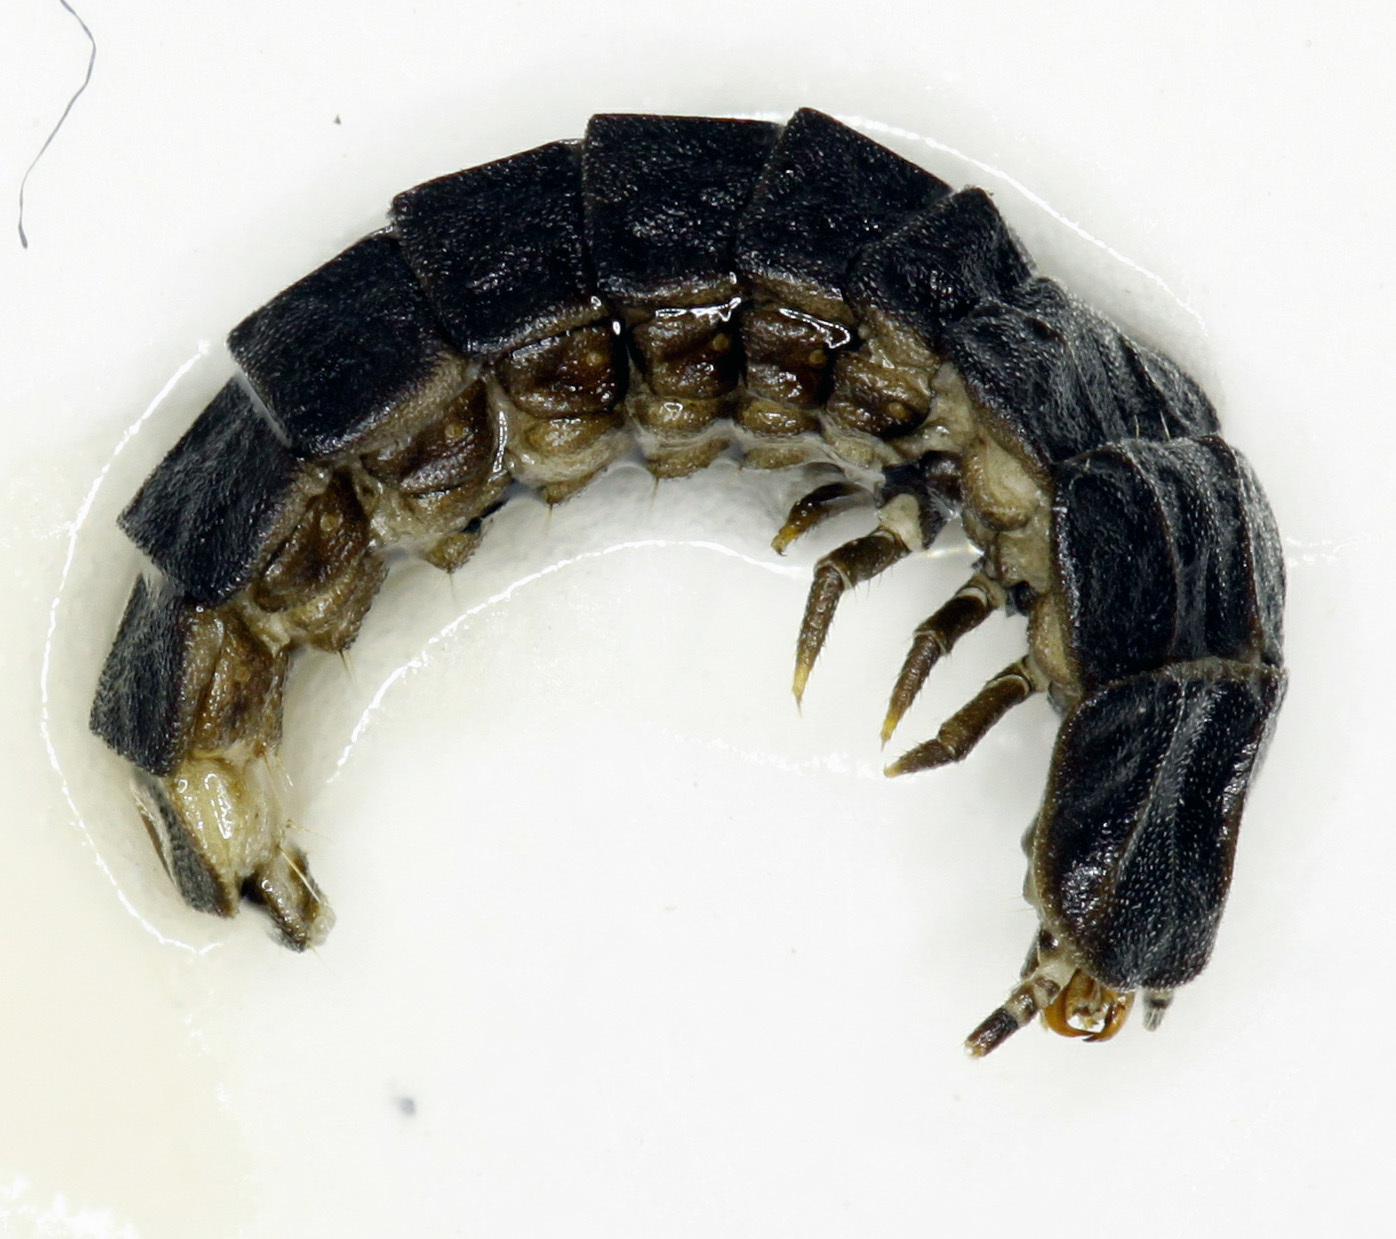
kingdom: Animalia
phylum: Arthropoda
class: Insecta
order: Coleoptera
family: Lampyridae
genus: Phosphaenus
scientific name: Phosphaenus hemipterus
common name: Short-winged firefly
